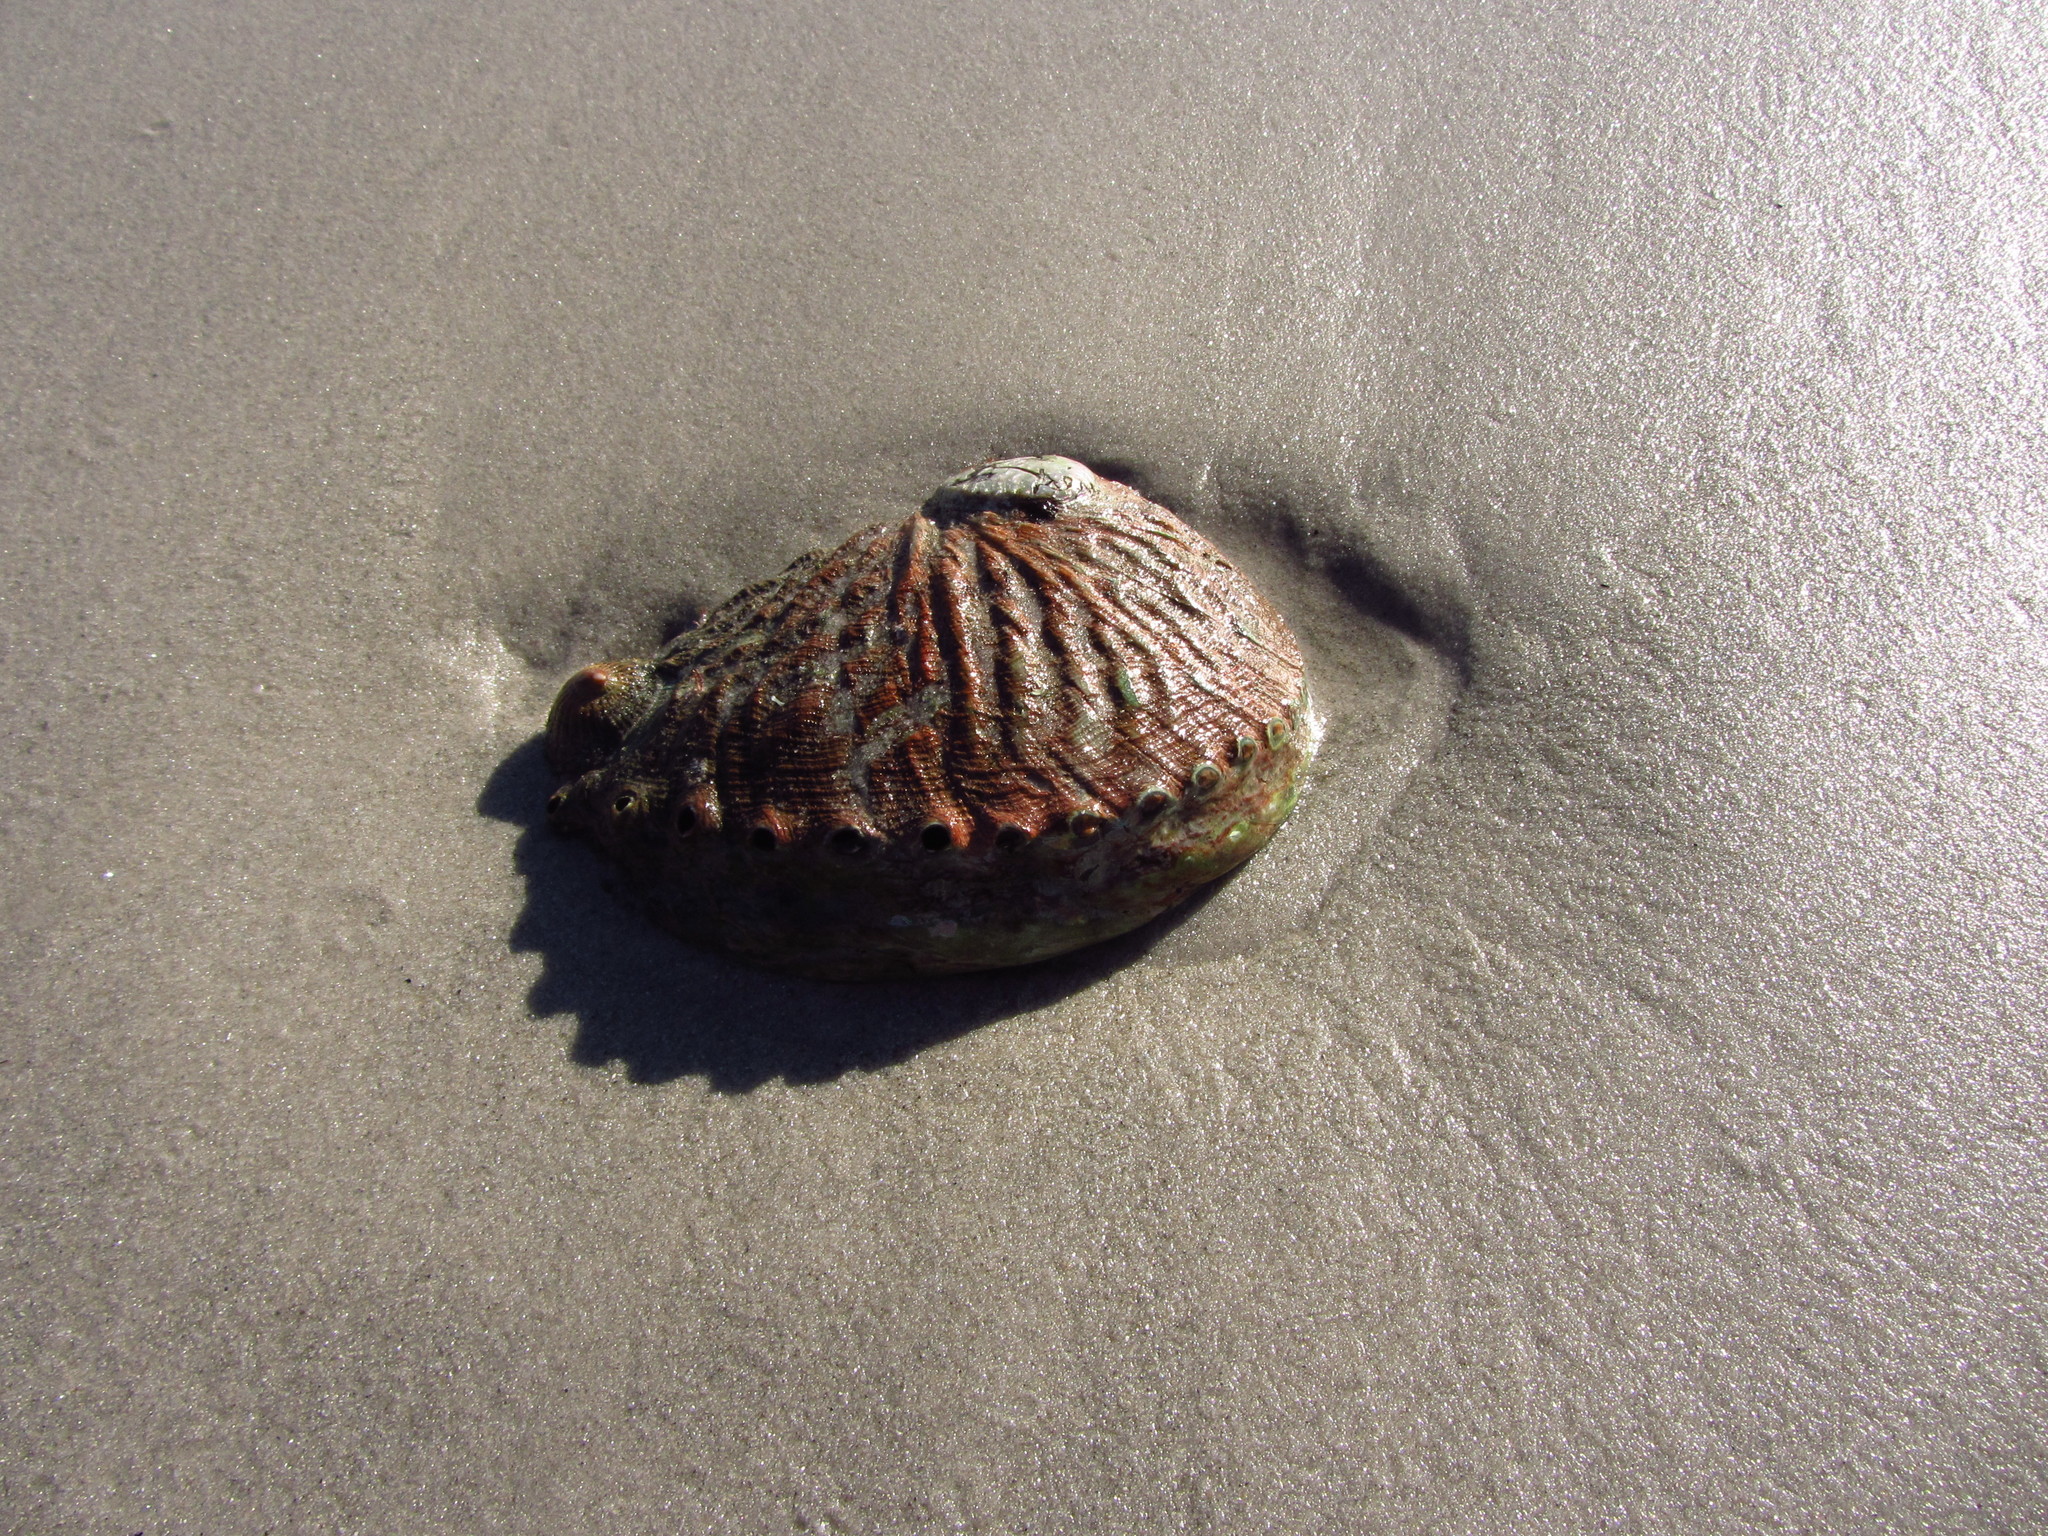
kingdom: Animalia
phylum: Mollusca
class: Gastropoda
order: Lepetellida
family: Haliotidae
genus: Haliotis
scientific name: Haliotis rubra
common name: Blacklip abalone
